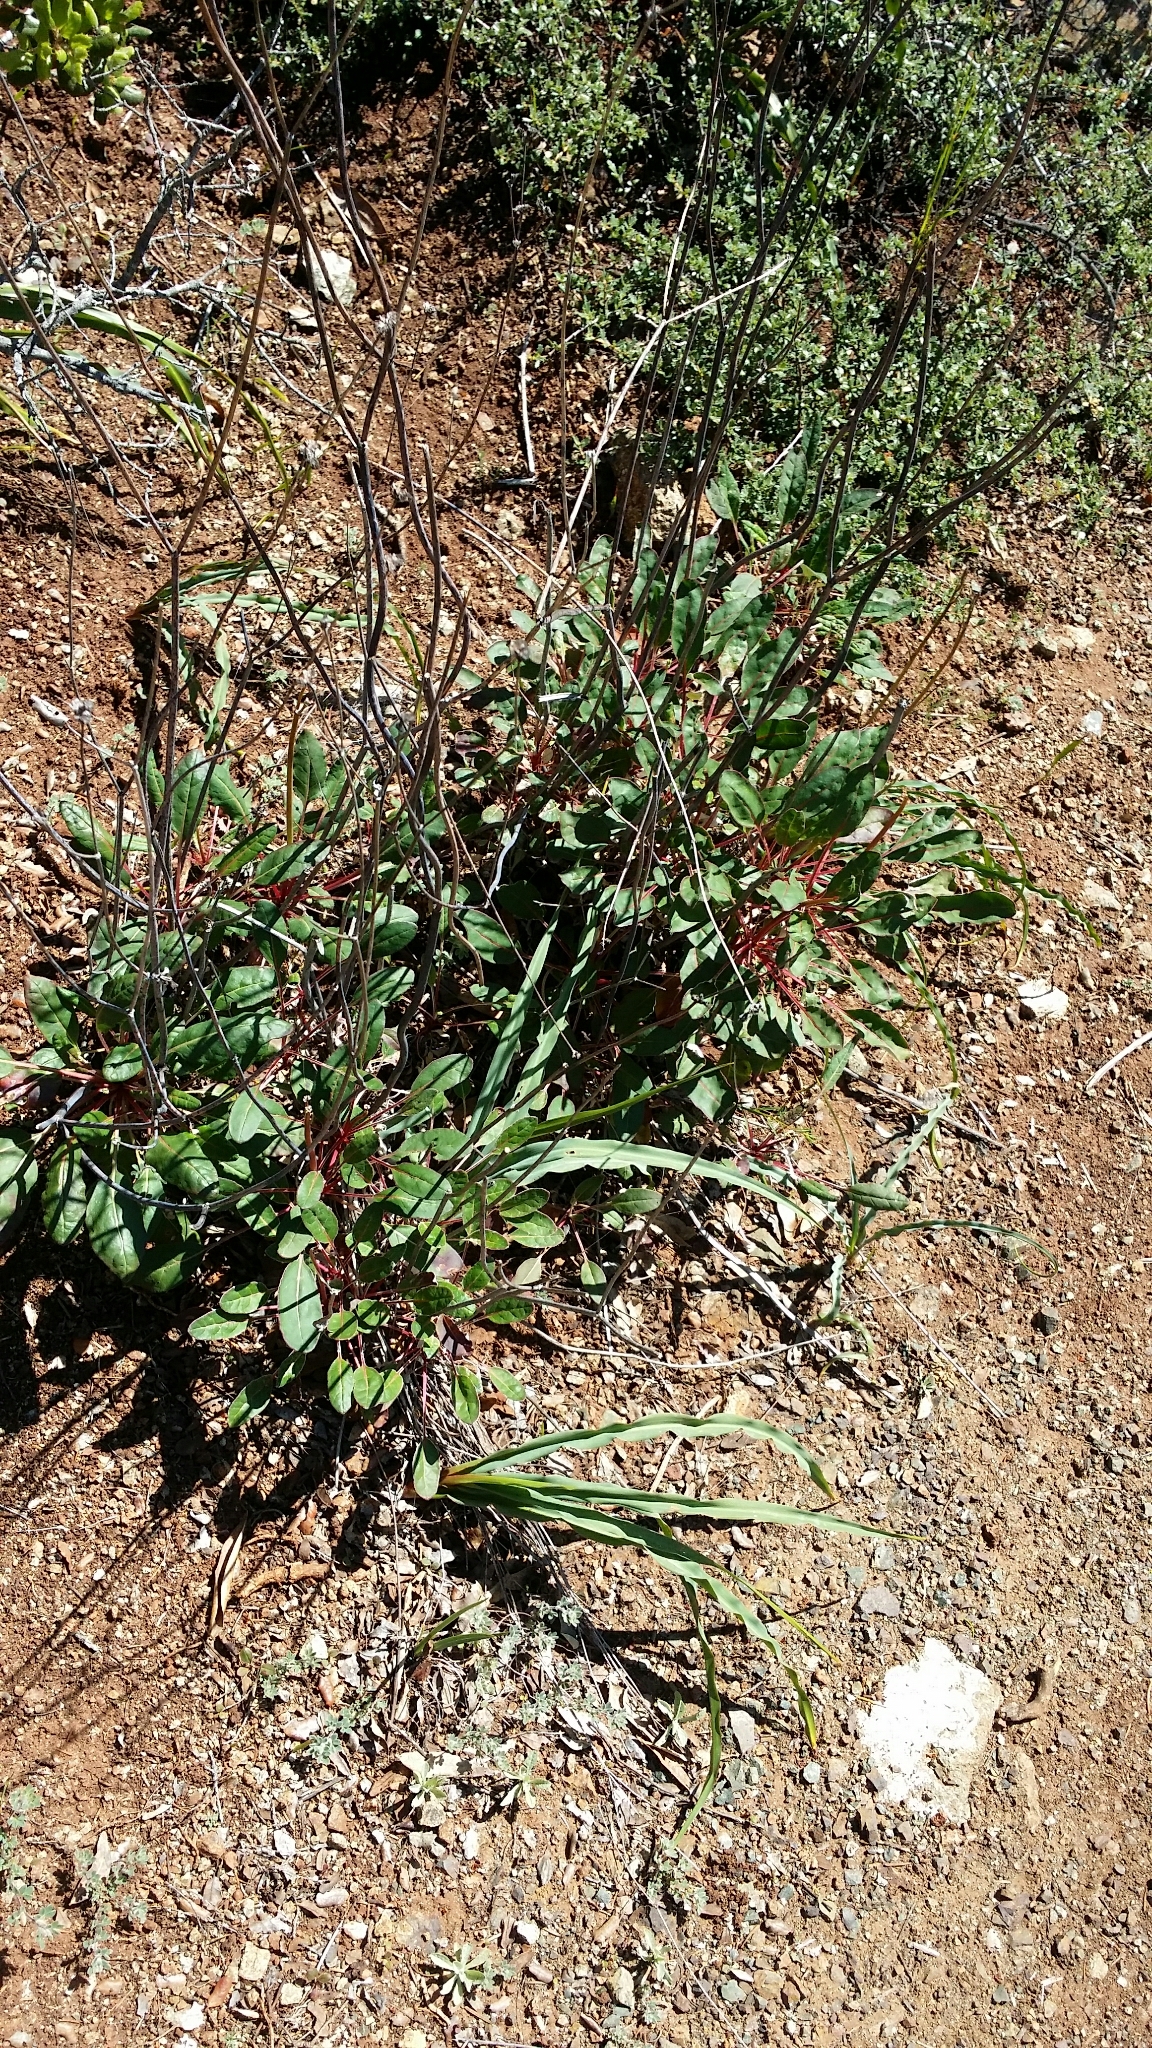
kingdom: Plantae
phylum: Tracheophyta
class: Magnoliopsida
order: Caryophyllales
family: Polygonaceae
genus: Eriogonum
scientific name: Eriogonum nudum
